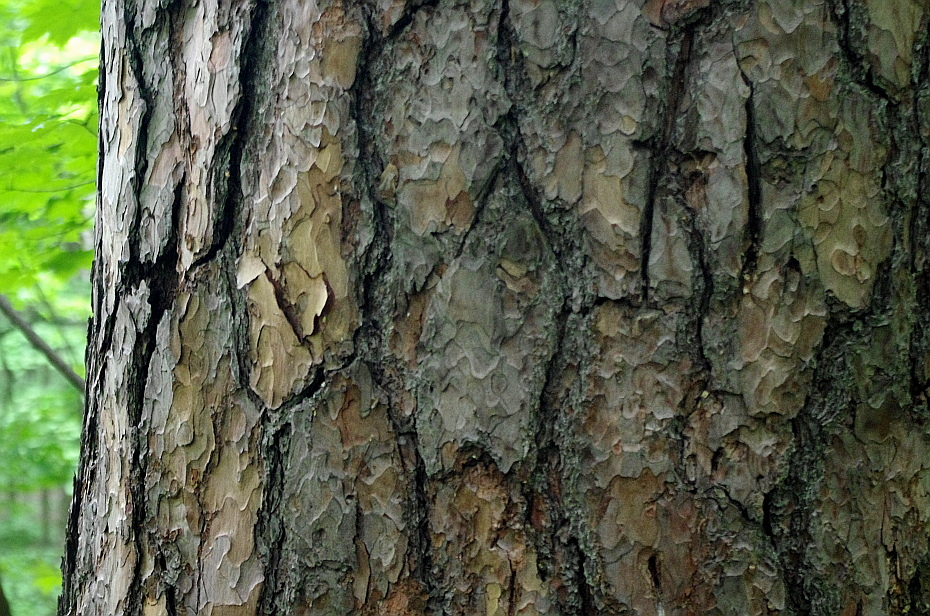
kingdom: Plantae
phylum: Tracheophyta
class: Pinopsida
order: Pinales
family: Pinaceae
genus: Pinus
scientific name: Pinus sylvestris
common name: Scots pine
